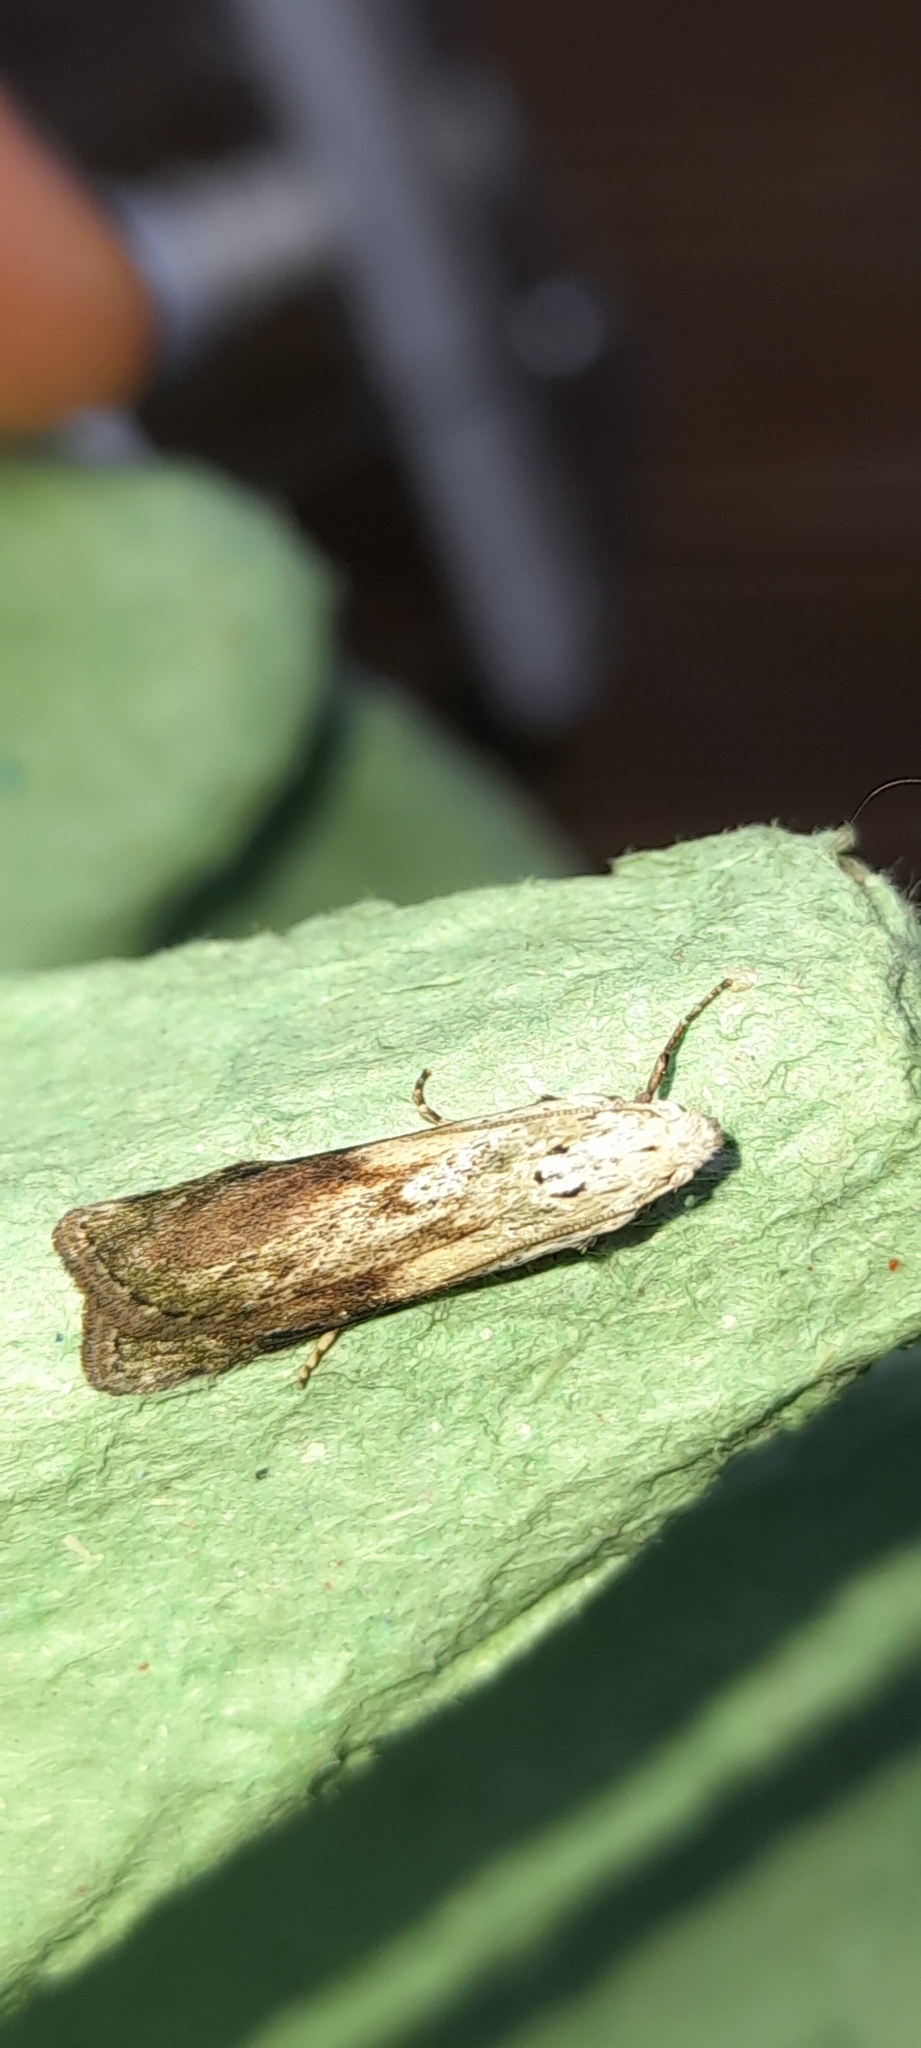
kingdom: Animalia
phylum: Arthropoda
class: Insecta
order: Lepidoptera
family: Pyralidae
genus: Aphomia
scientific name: Aphomia sociella
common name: Bee moth
